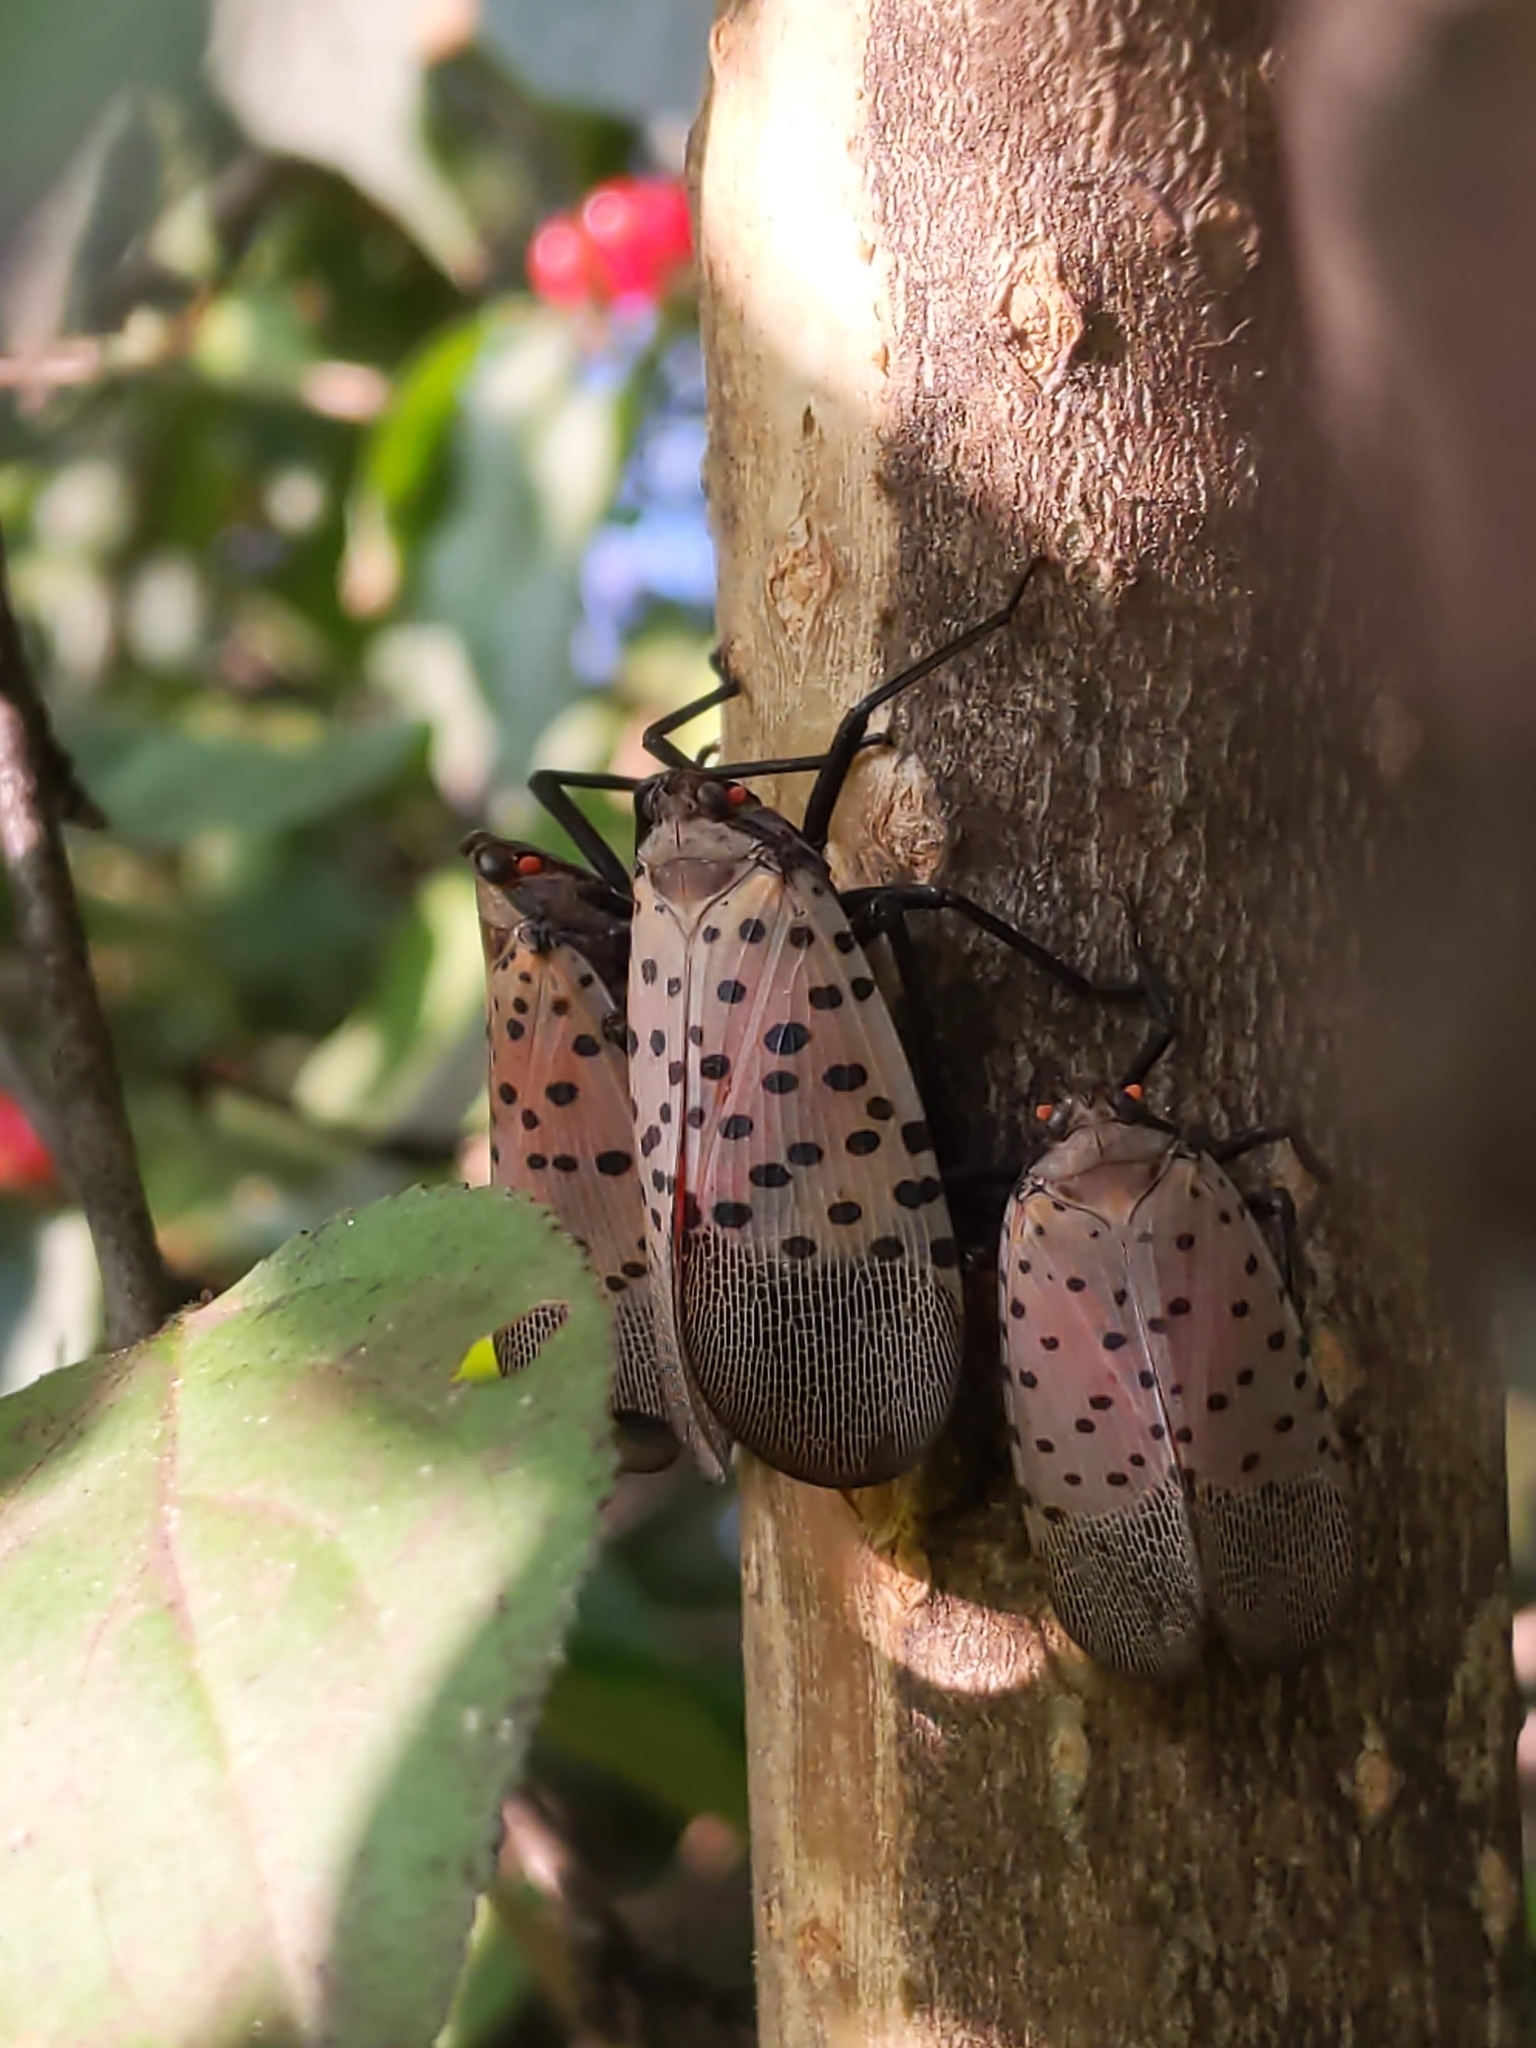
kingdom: Animalia
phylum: Arthropoda
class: Insecta
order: Hemiptera
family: Fulgoridae
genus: Lycorma
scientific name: Lycorma delicatula
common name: Spotted lanternfly
